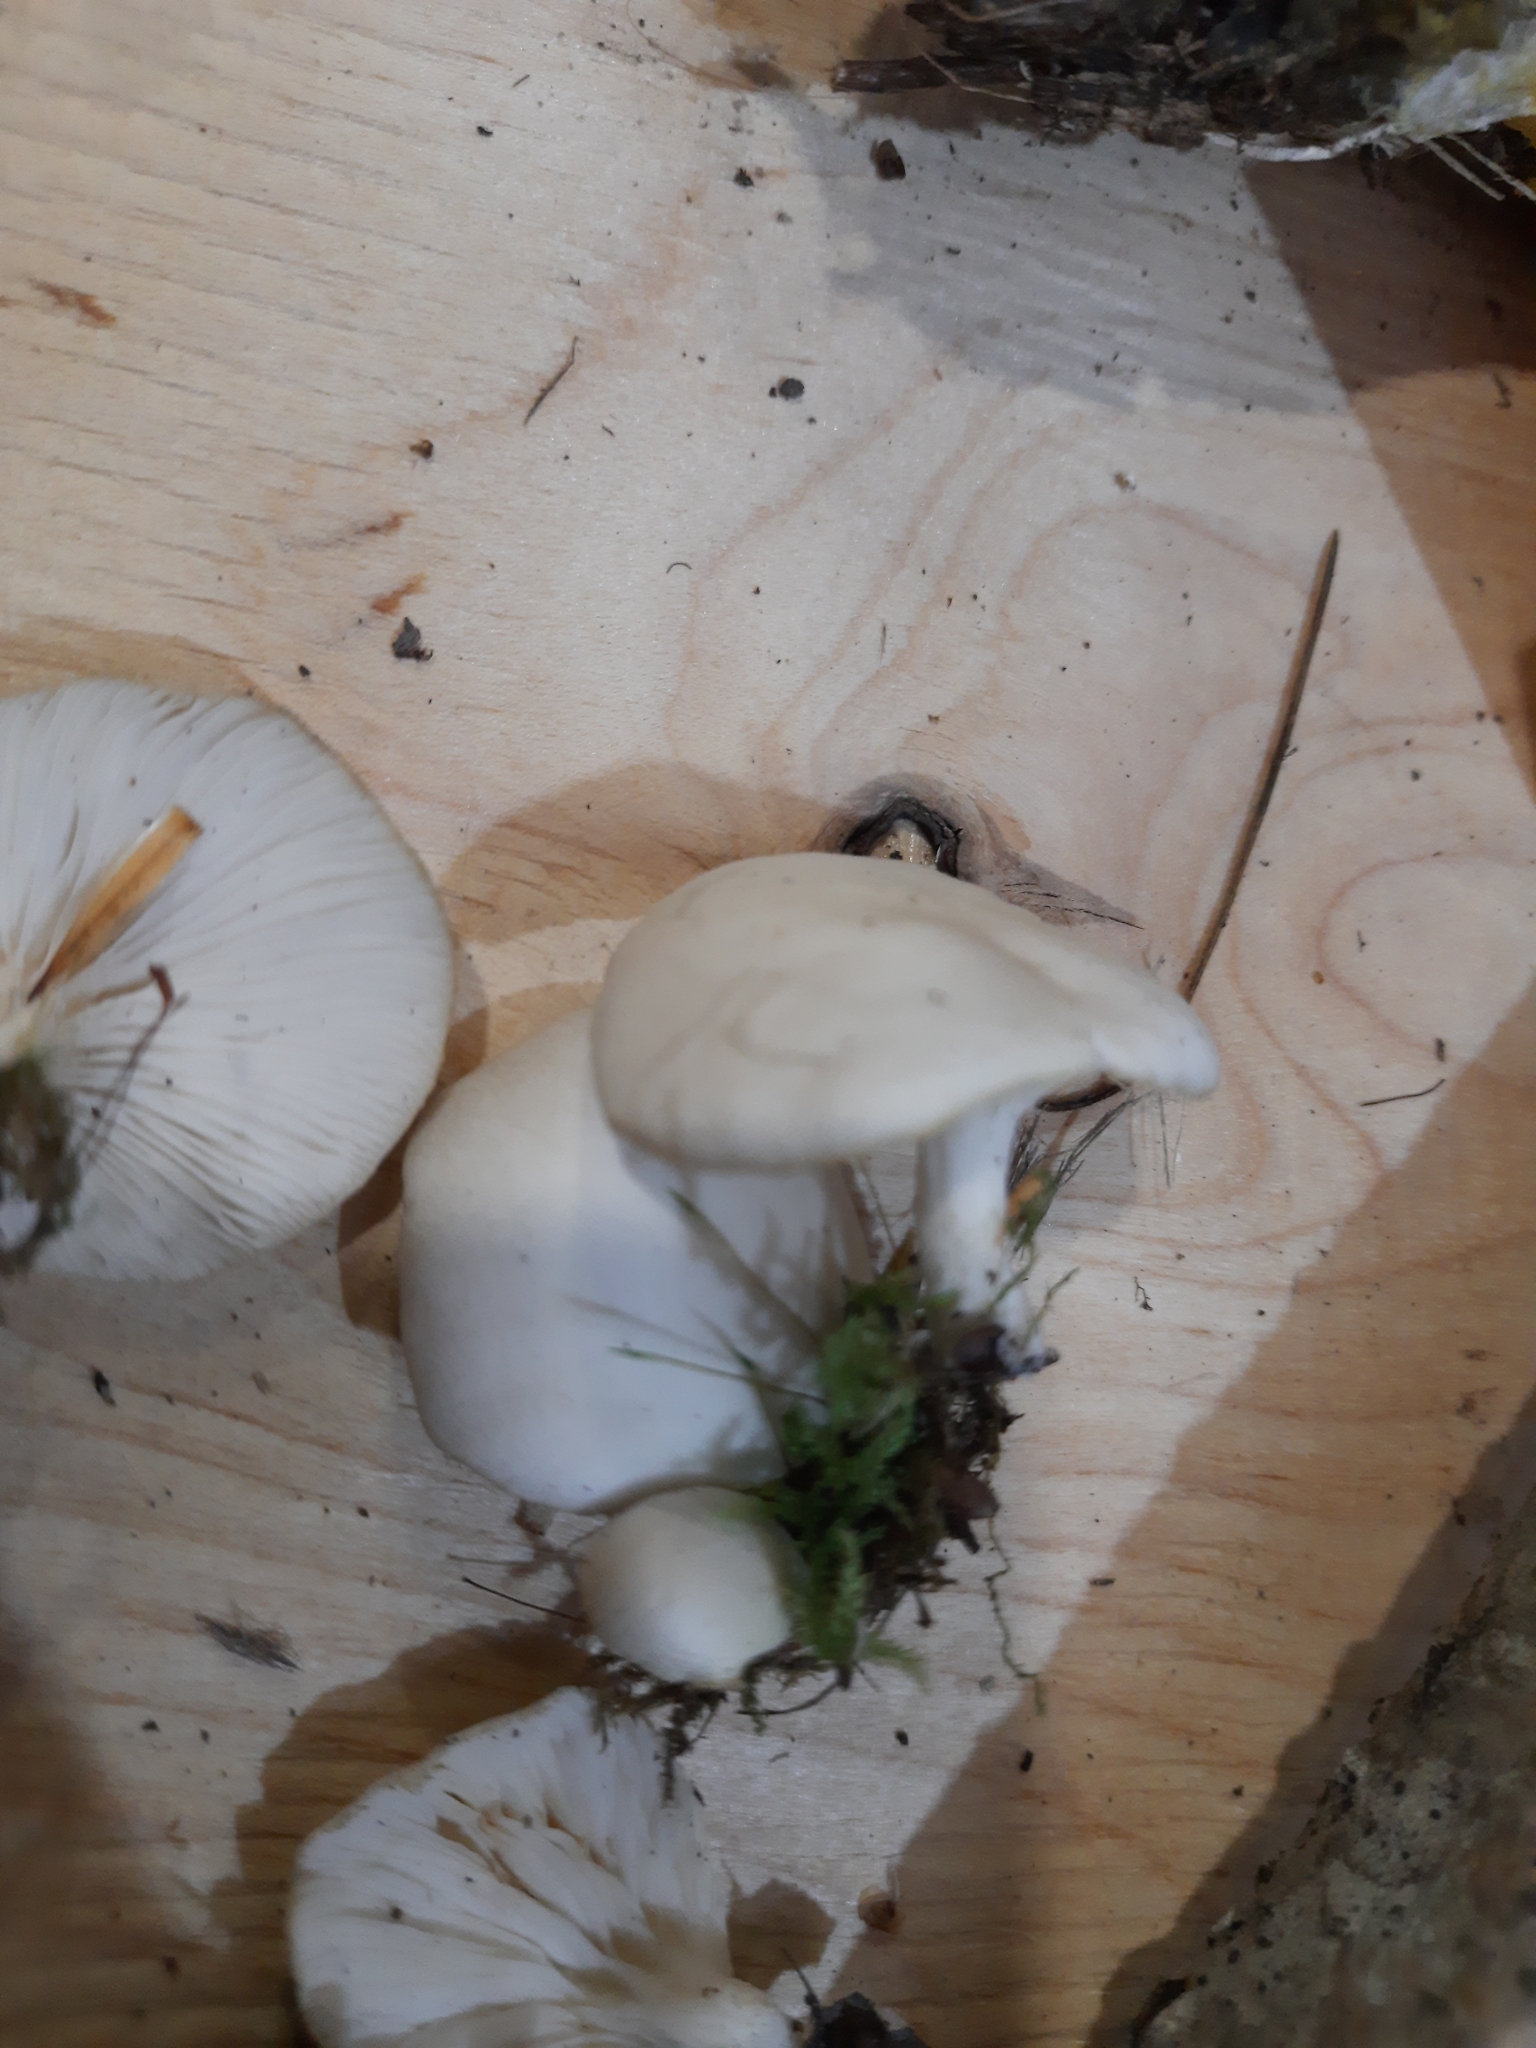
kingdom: Fungi
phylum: Basidiomycota
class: Agaricomycetes
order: Agaricales
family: Pleurotaceae
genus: Pleurotus
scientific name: Pleurotus pulmonarius
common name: Pale oyster
